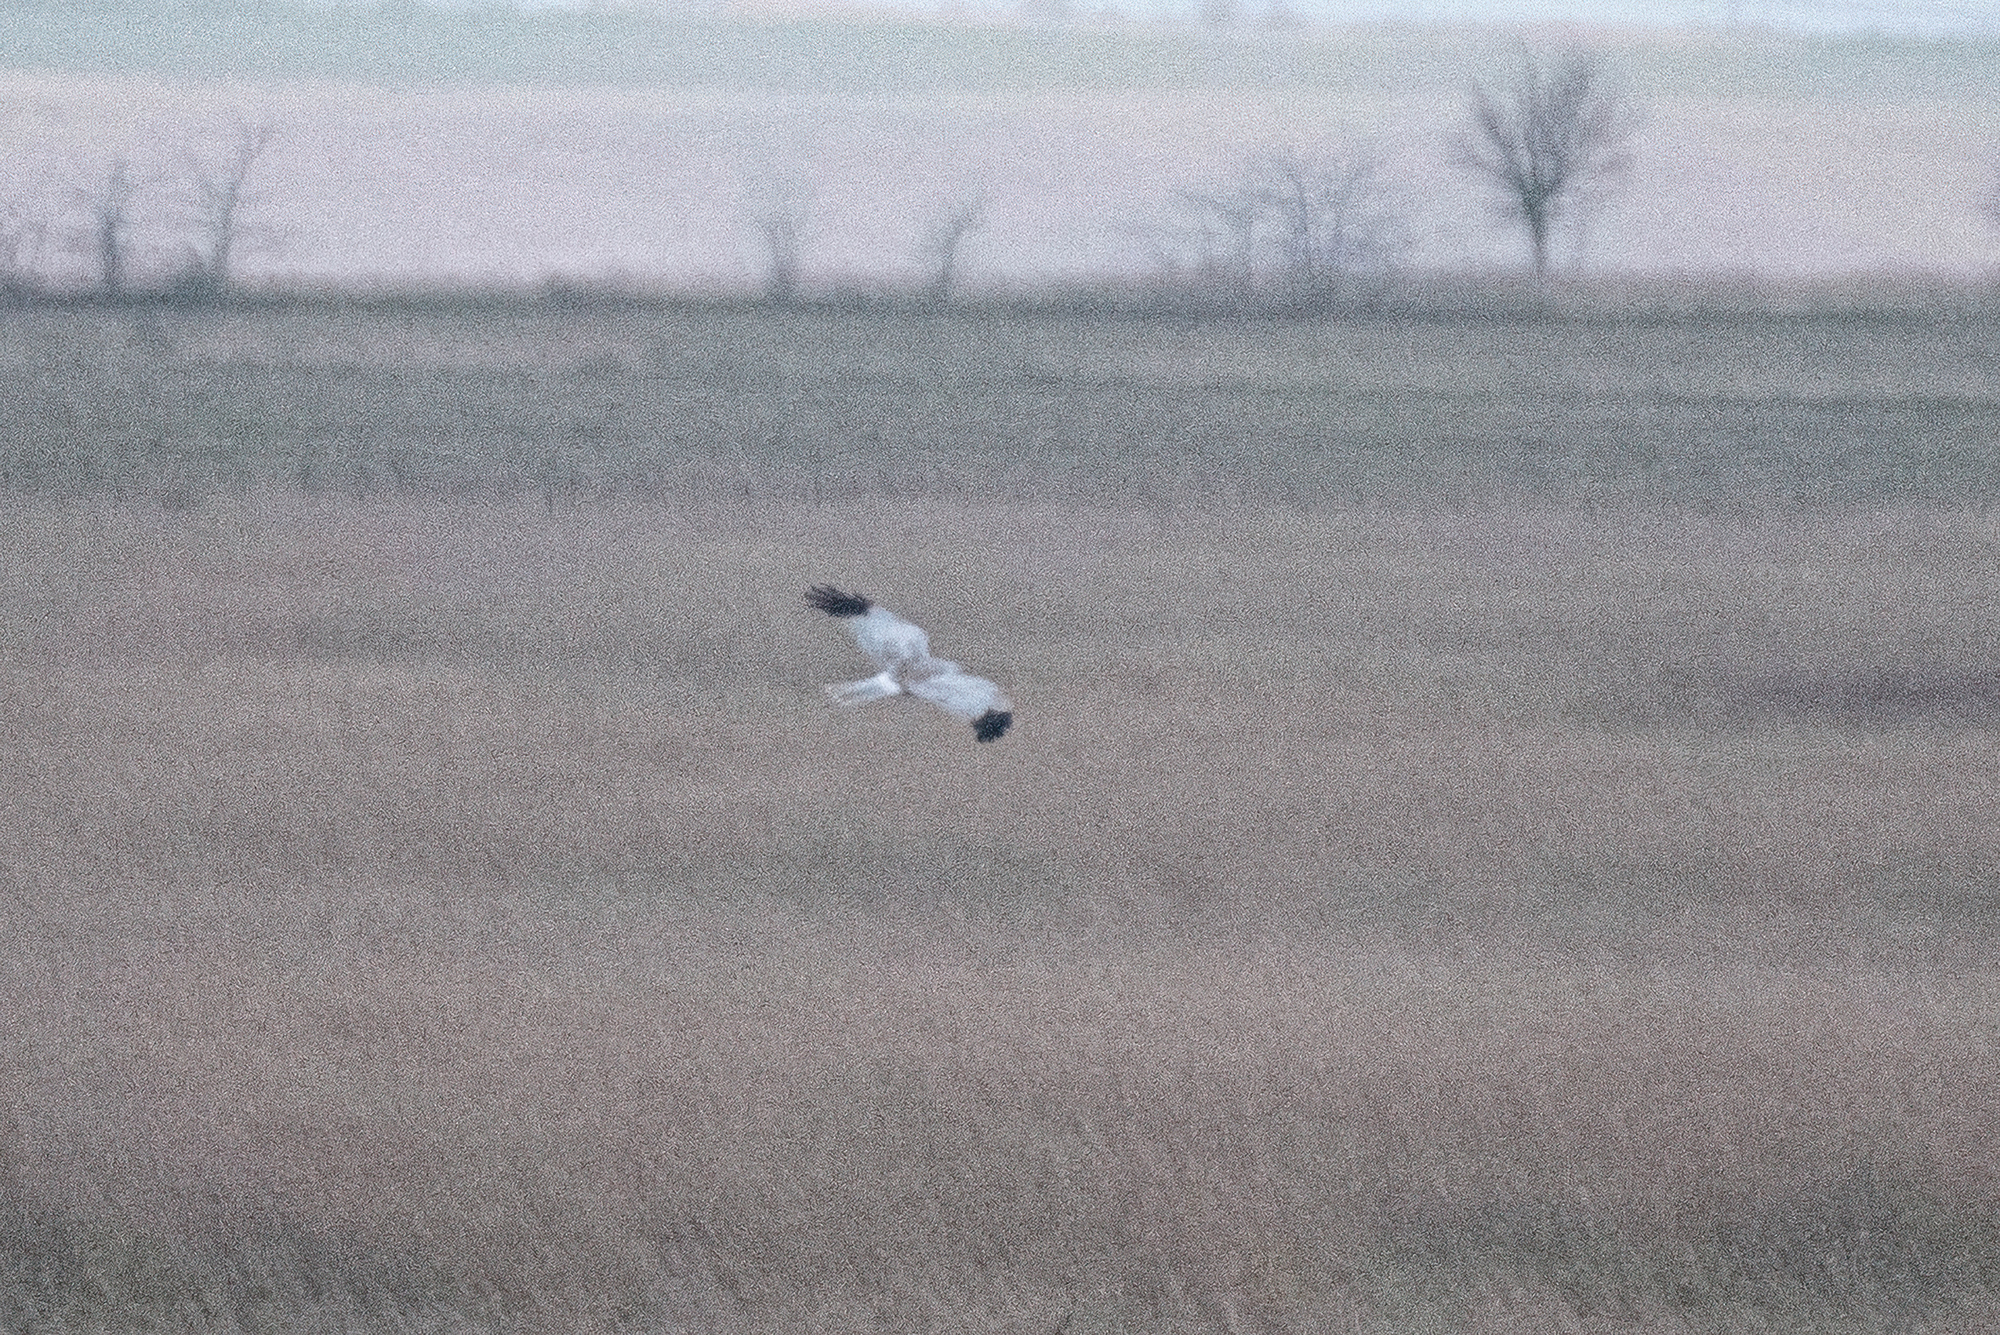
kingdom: Animalia
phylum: Chordata
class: Aves
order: Accipitriformes
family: Accipitridae
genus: Circus
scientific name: Circus cyaneus
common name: Hen harrier
